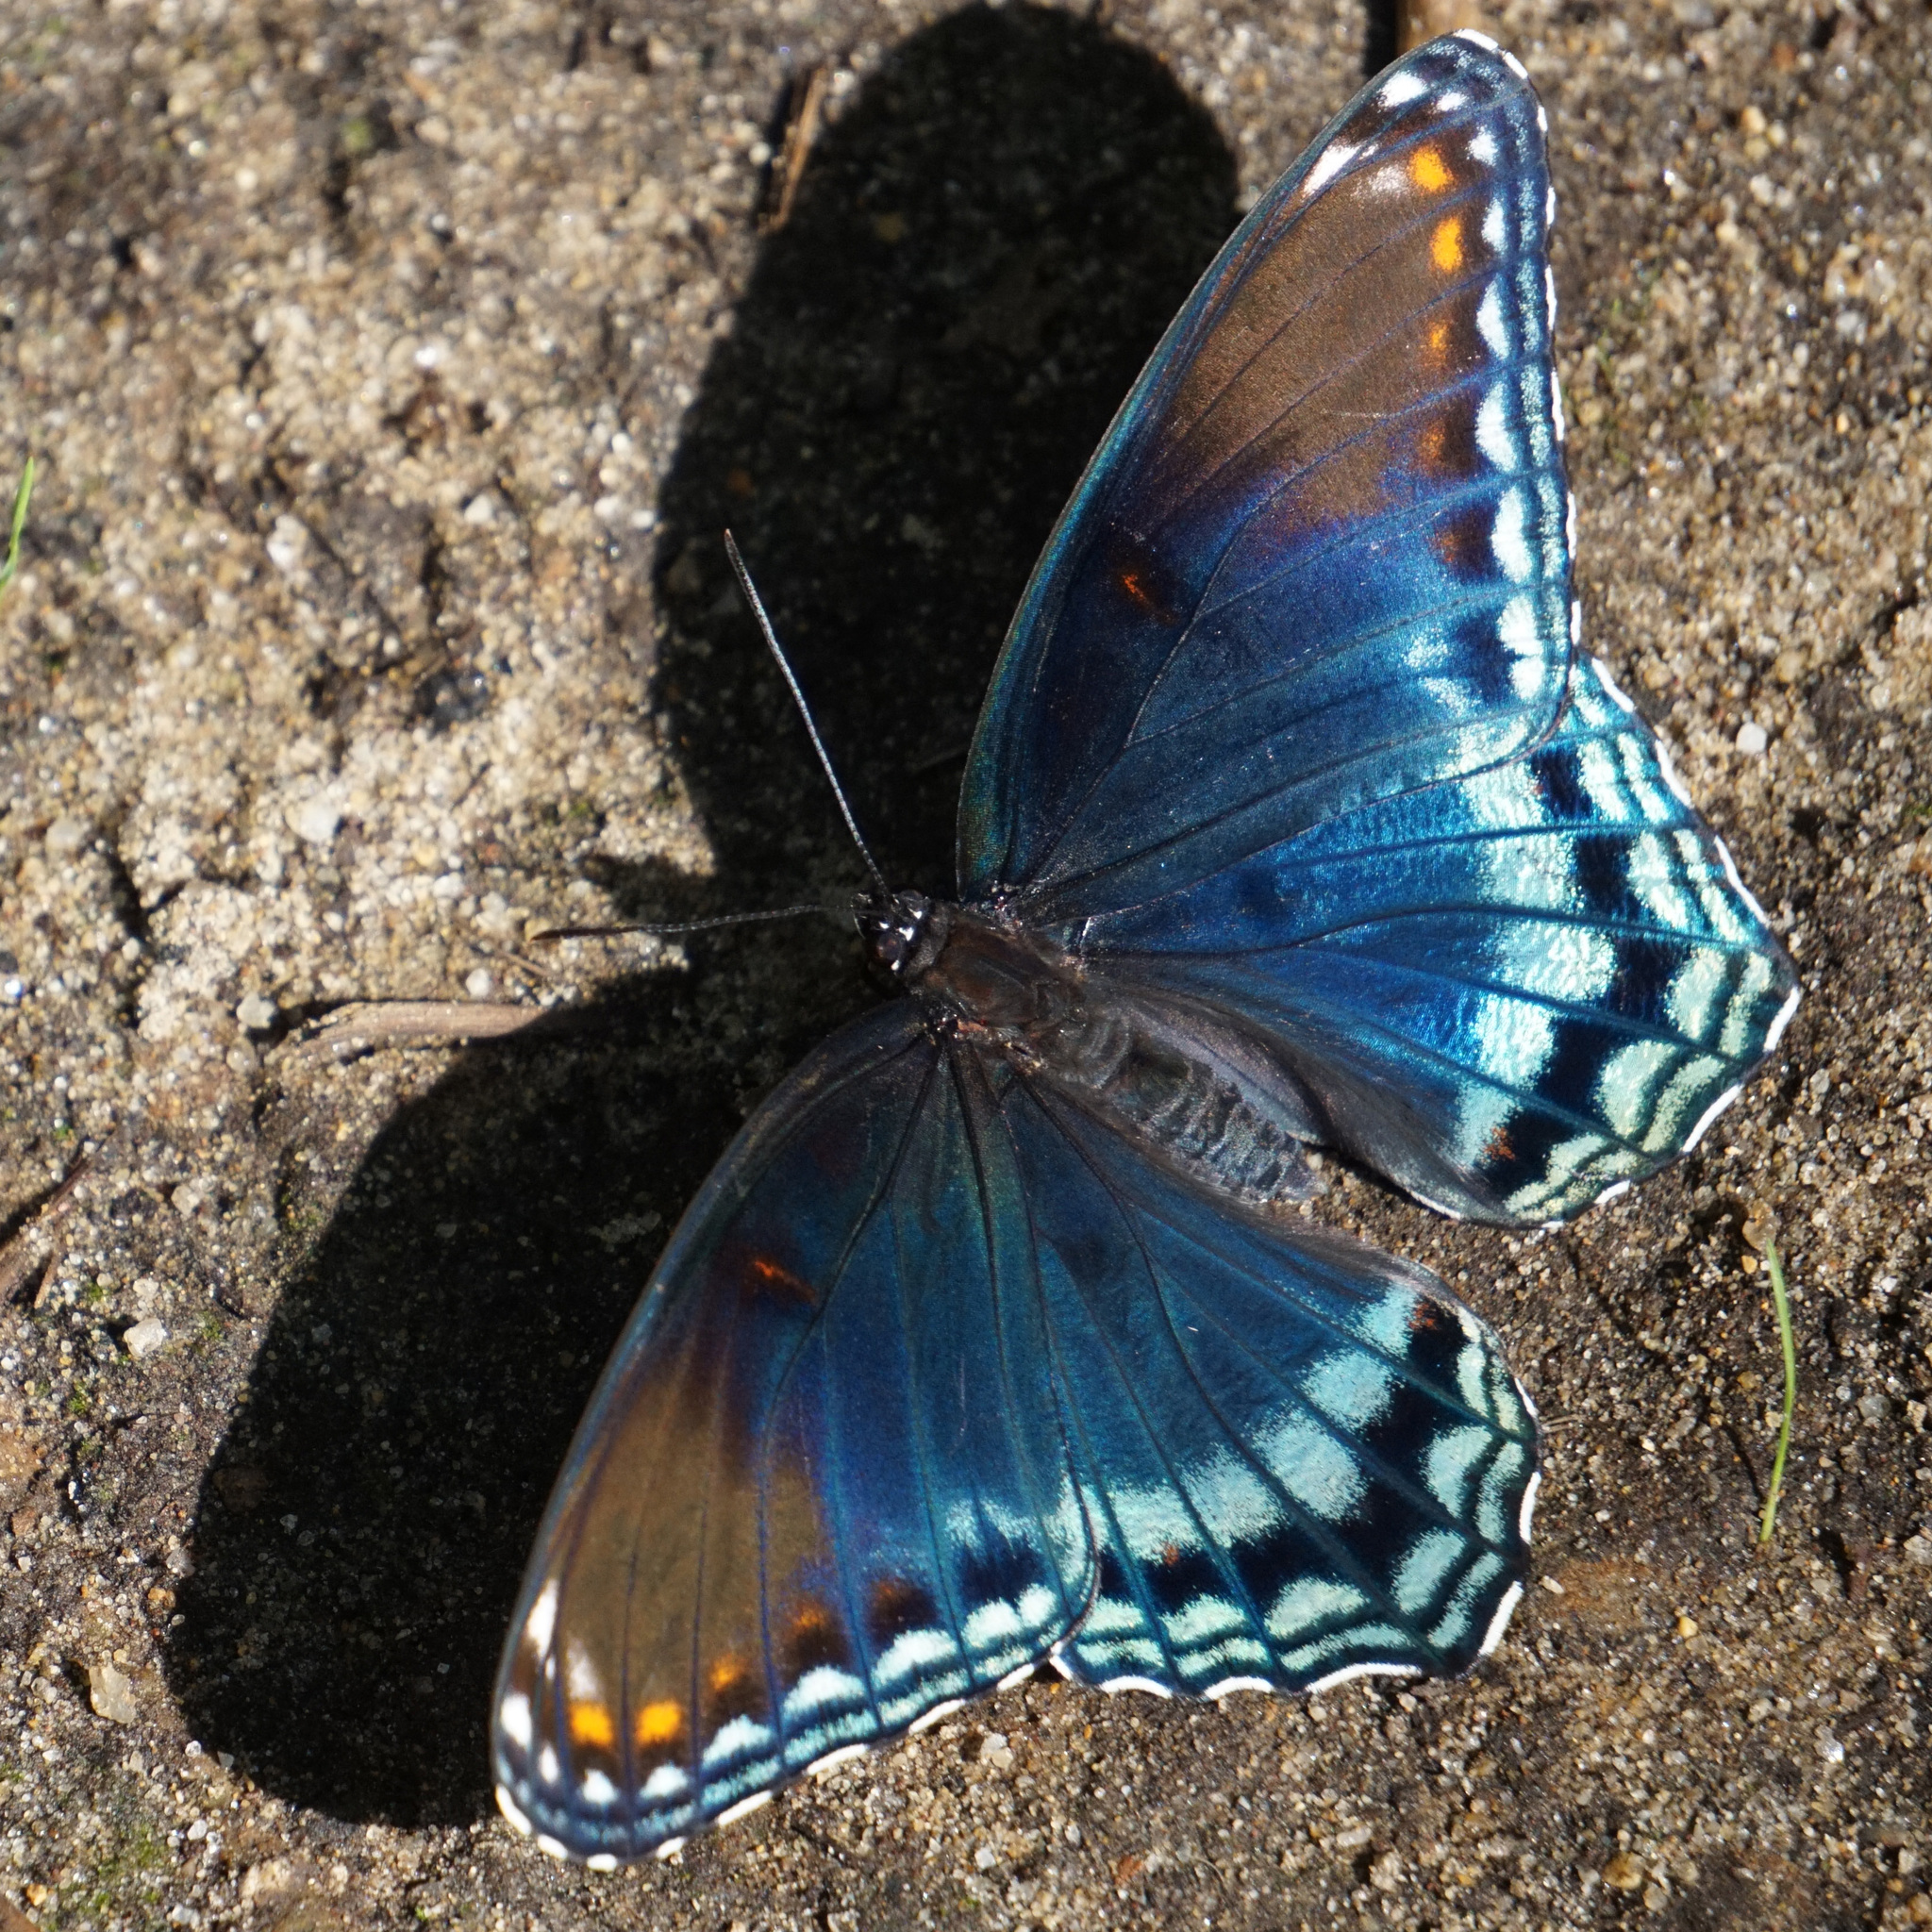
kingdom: Animalia
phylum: Arthropoda
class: Insecta
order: Lepidoptera
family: Nymphalidae
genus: Limenitis
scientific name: Limenitis arthemis
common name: Red-spotted admiral
